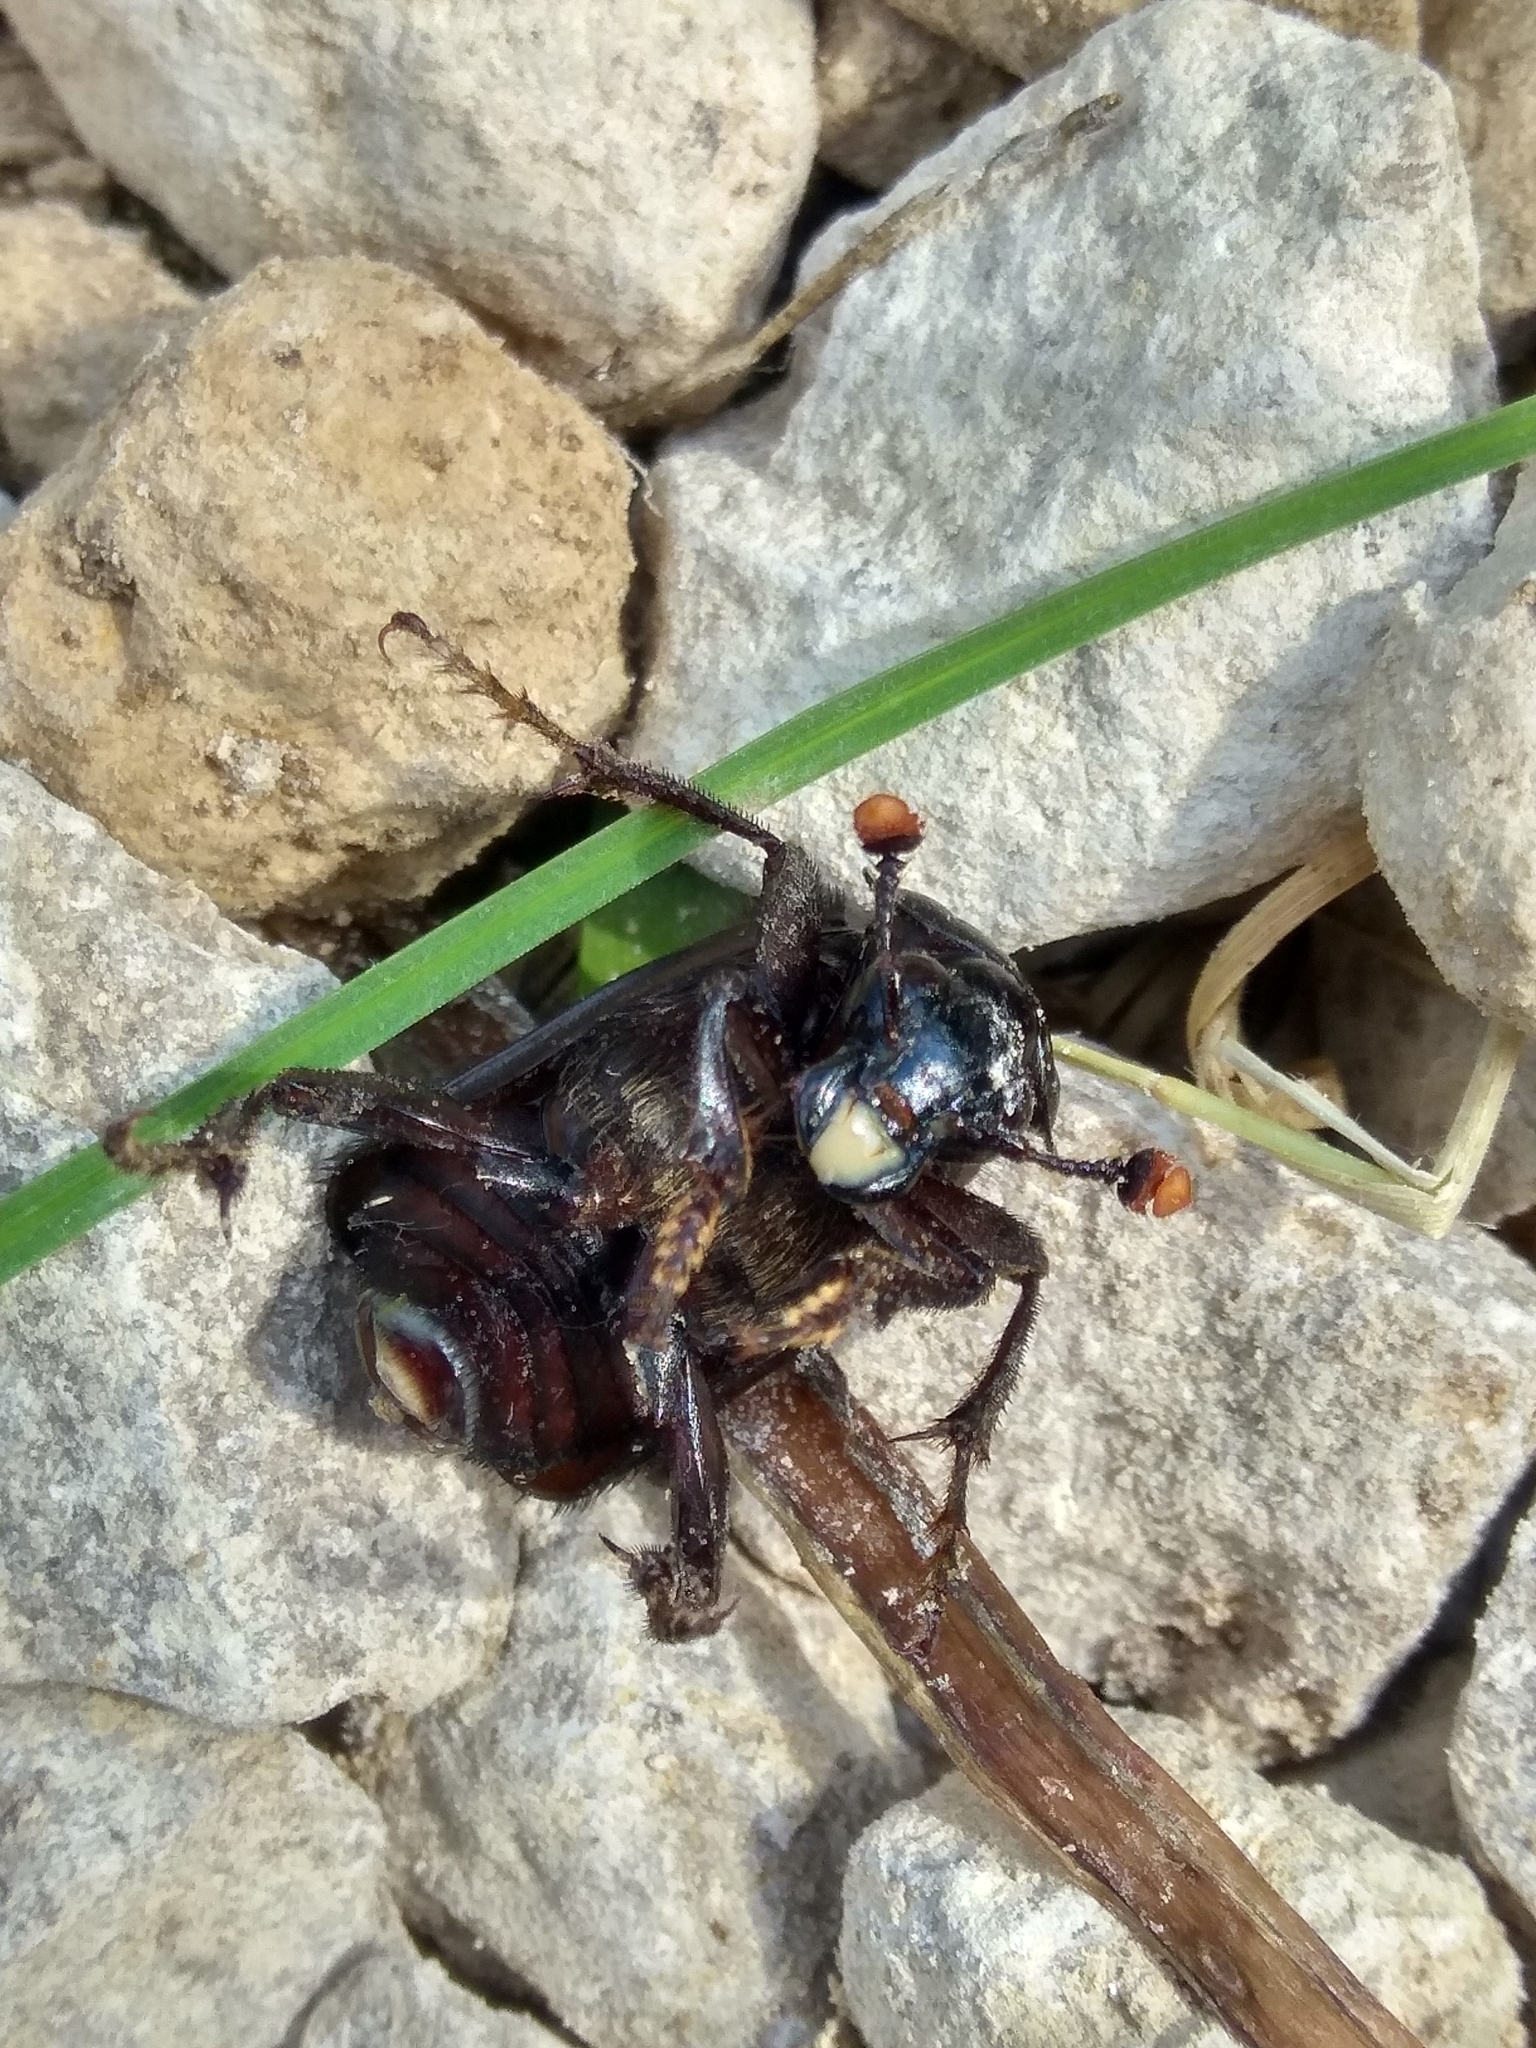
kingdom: Animalia
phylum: Arthropoda
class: Insecta
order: Coleoptera
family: Staphylinidae
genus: Nicrophorus
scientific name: Nicrophorus humator
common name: Black sexton beetle
